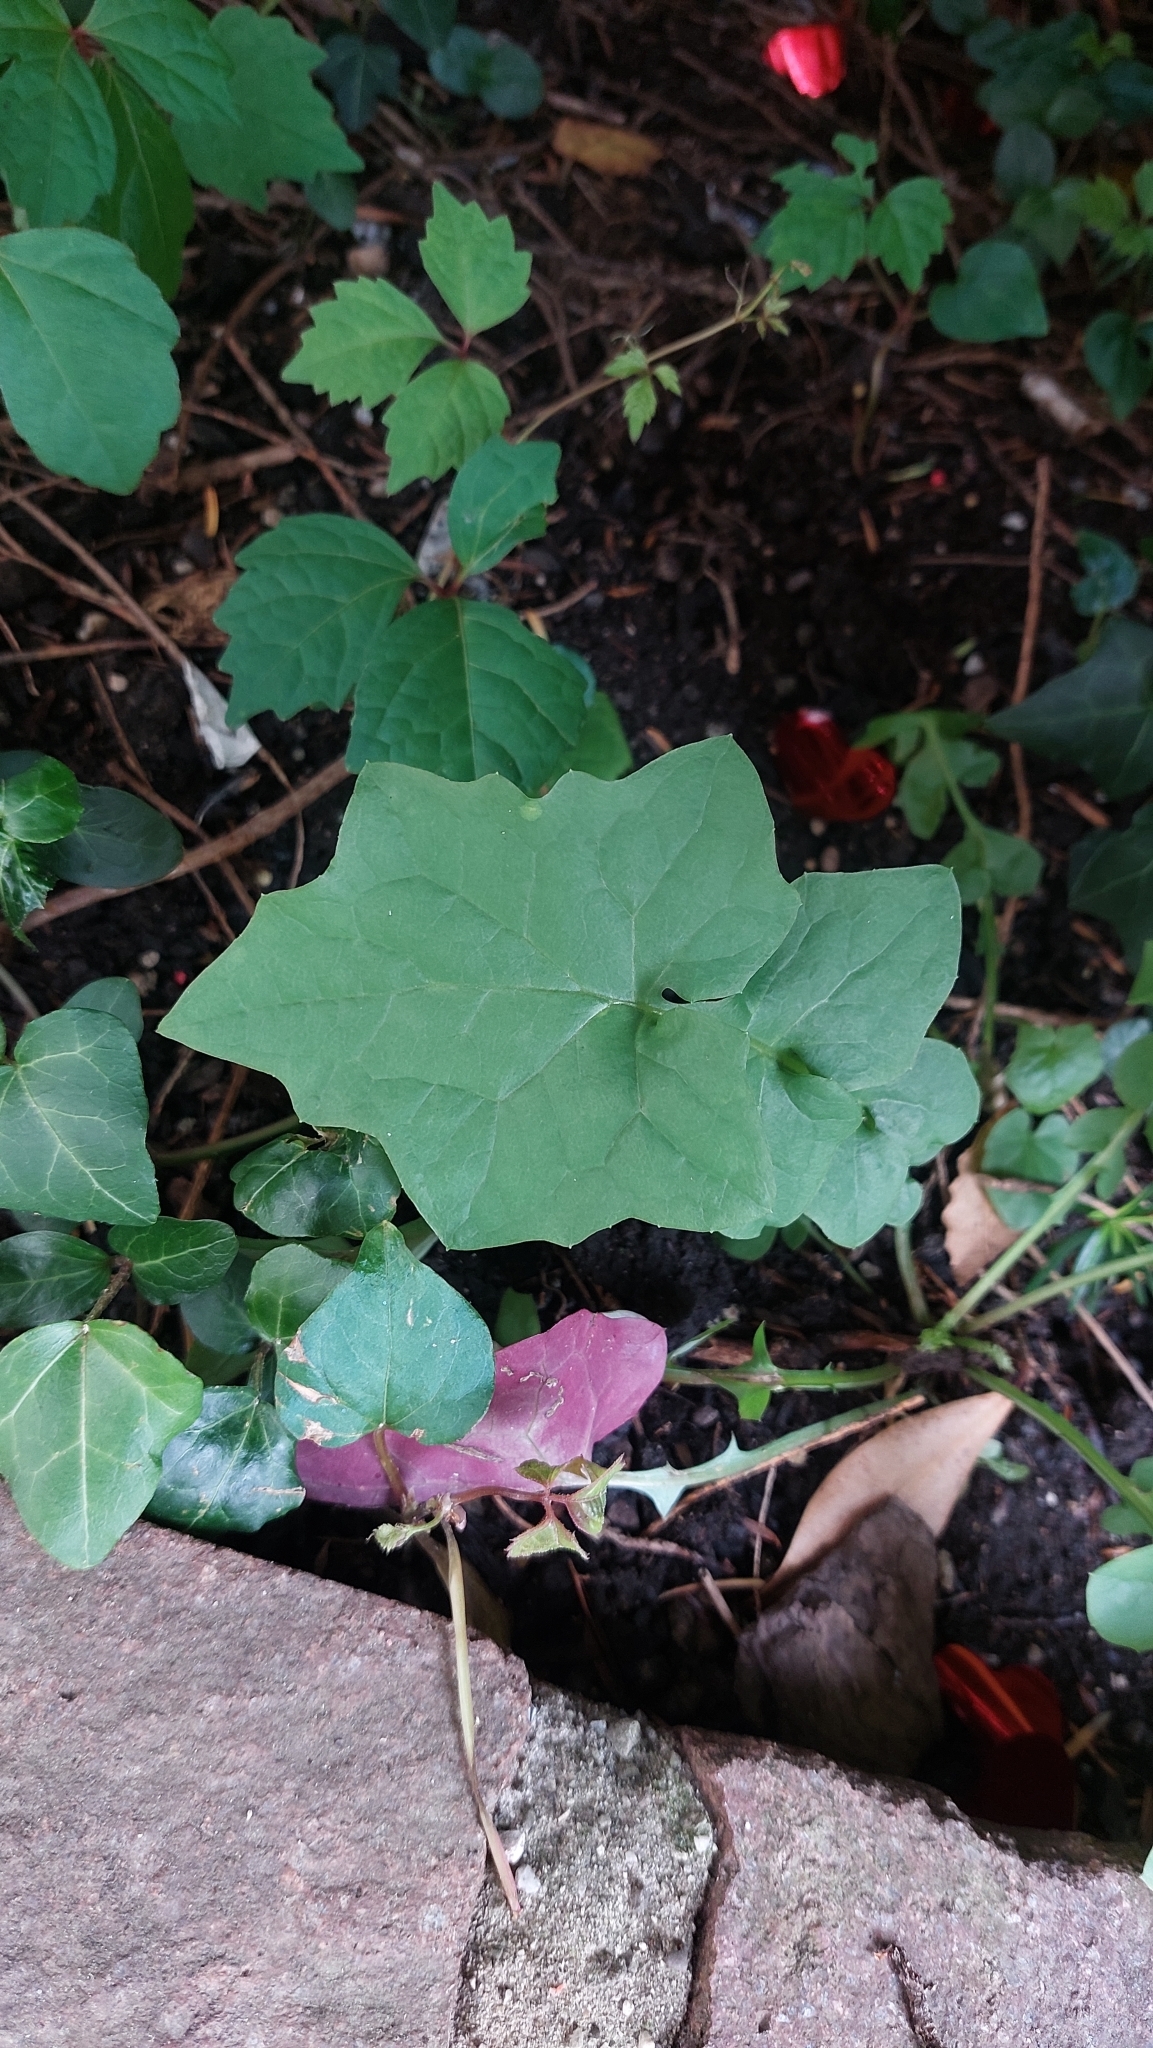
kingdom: Plantae
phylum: Tracheophyta
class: Magnoliopsida
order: Asterales
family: Asteraceae
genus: Mycelis
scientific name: Mycelis muralis
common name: Wall lettuce
